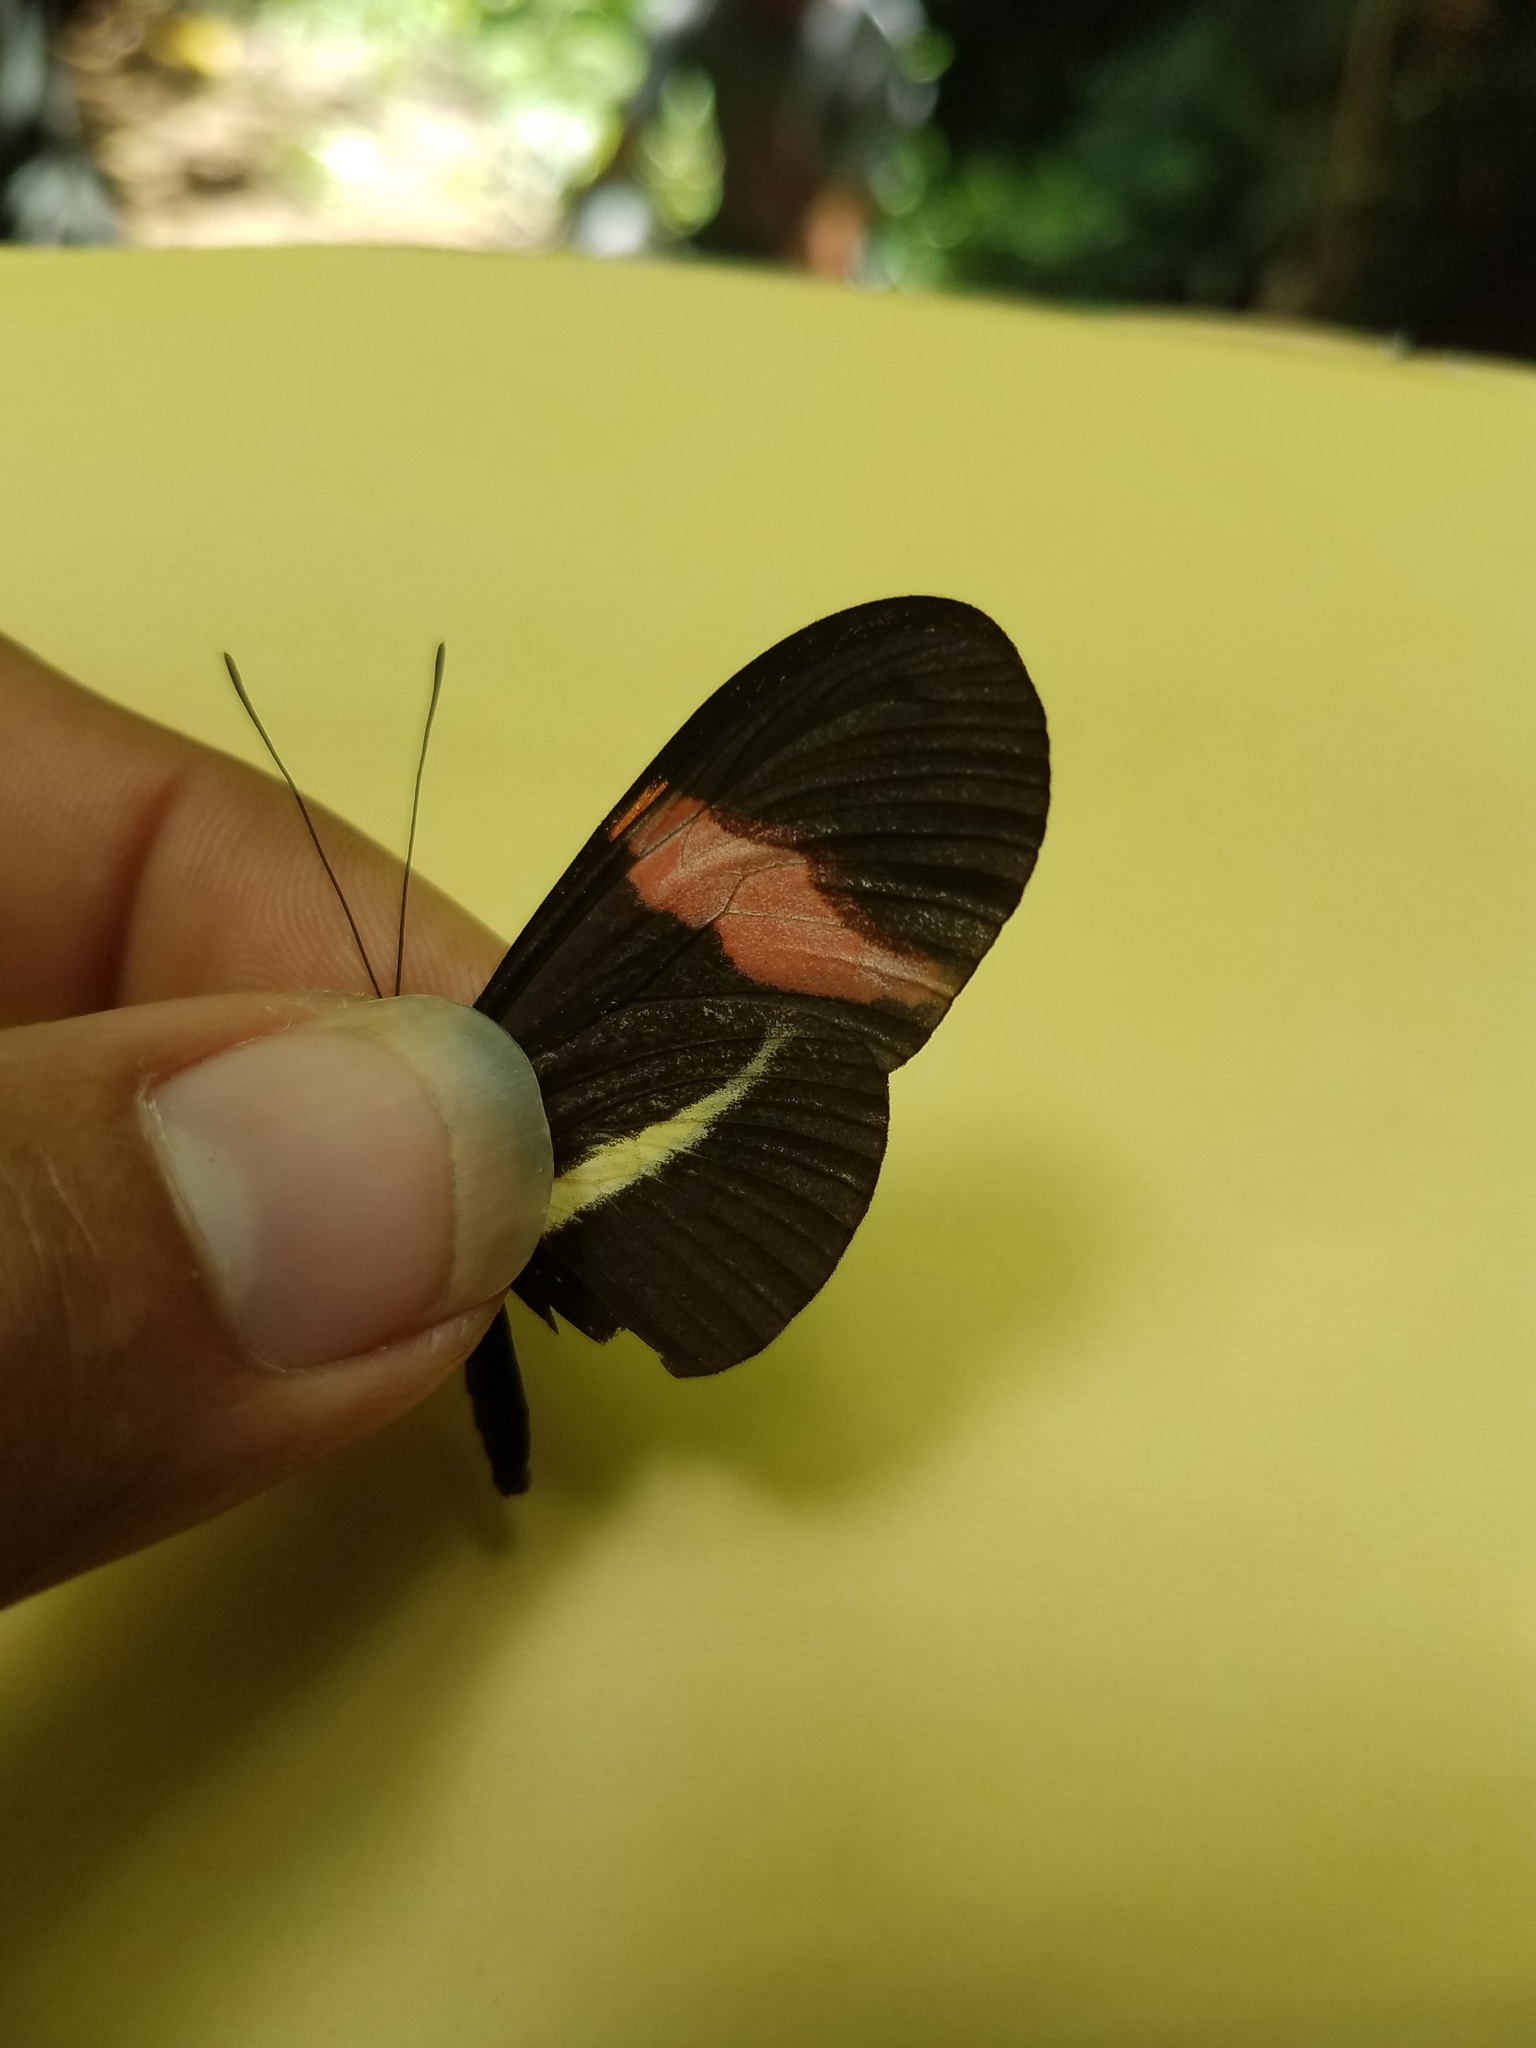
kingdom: Animalia
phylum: Arthropoda
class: Insecta
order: Lepidoptera
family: Nymphalidae
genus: Tirumala
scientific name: Tirumala petiverana
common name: Blue monarch
